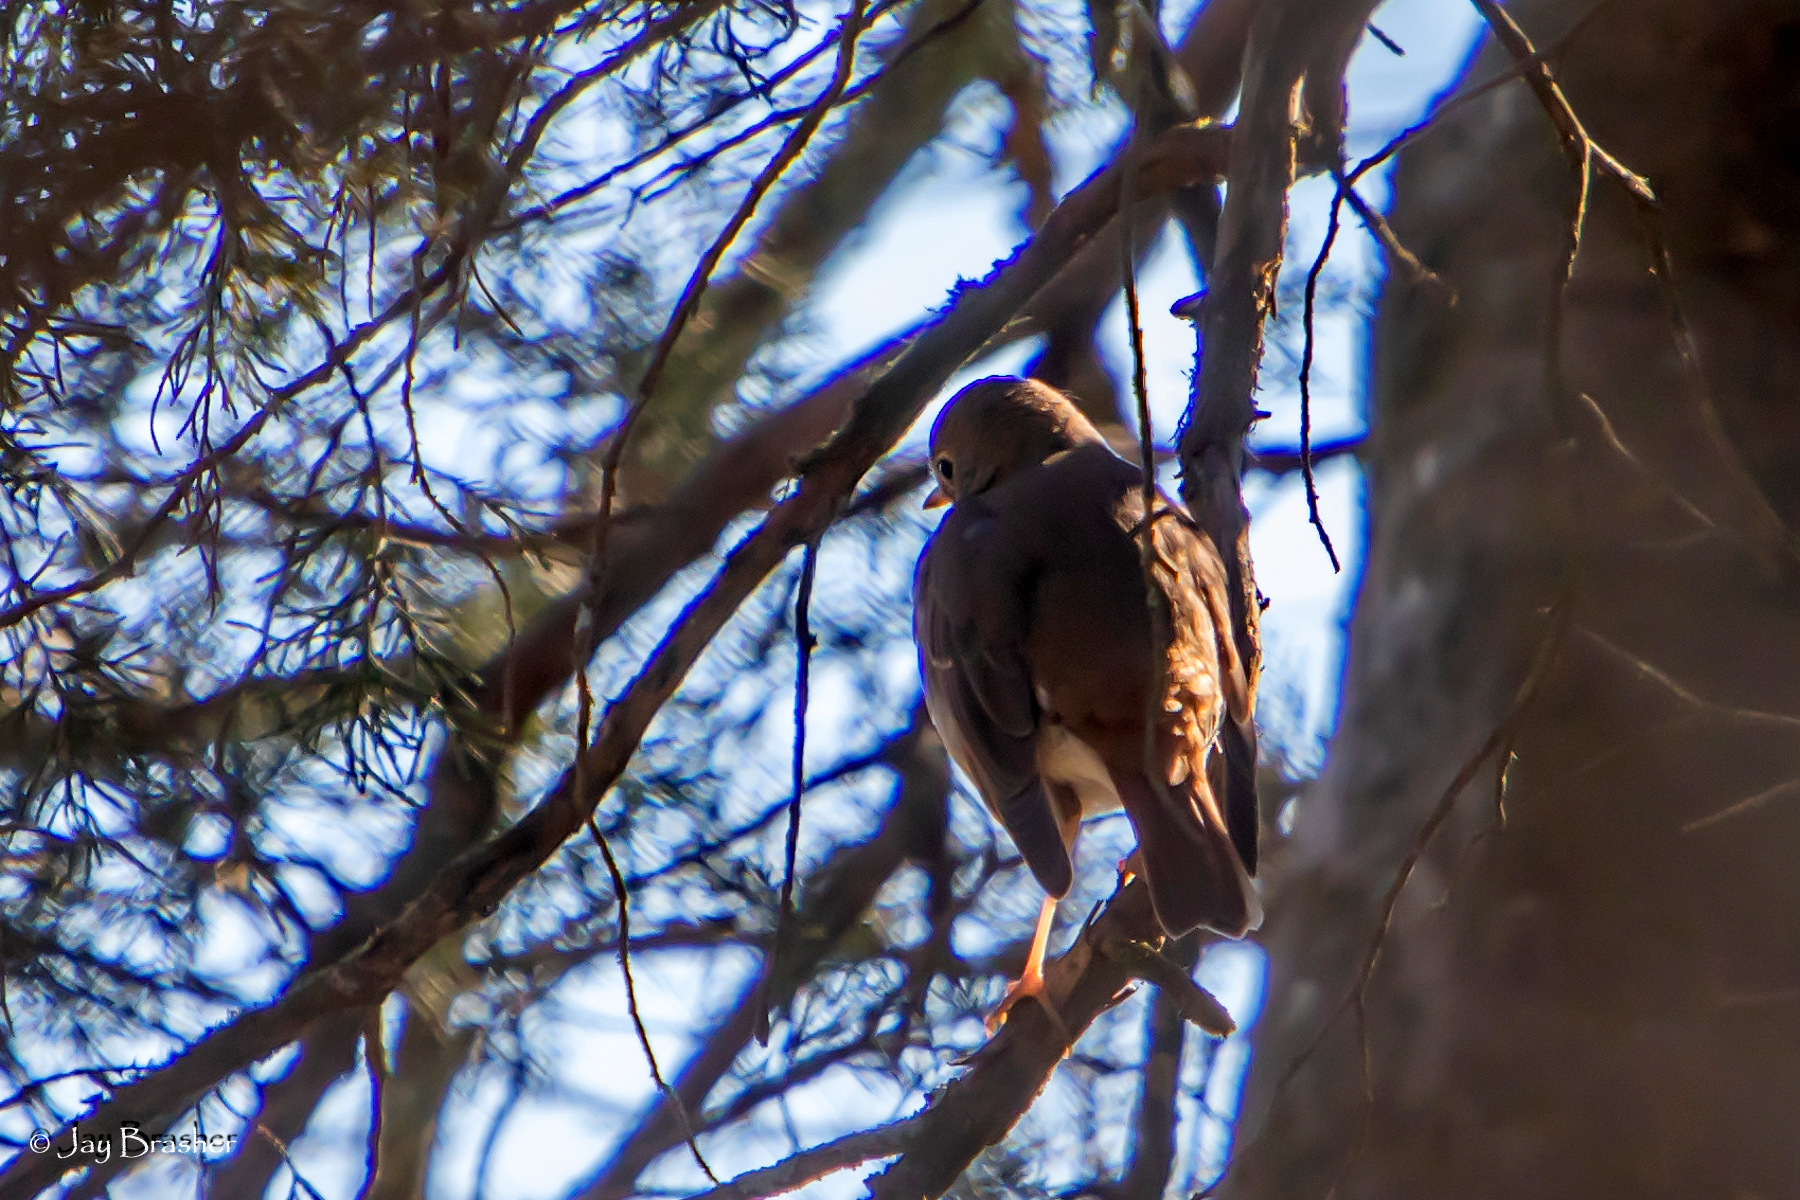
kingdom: Animalia
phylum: Chordata
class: Aves
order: Passeriformes
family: Turdidae
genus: Catharus
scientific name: Catharus guttatus
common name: Hermit thrush
